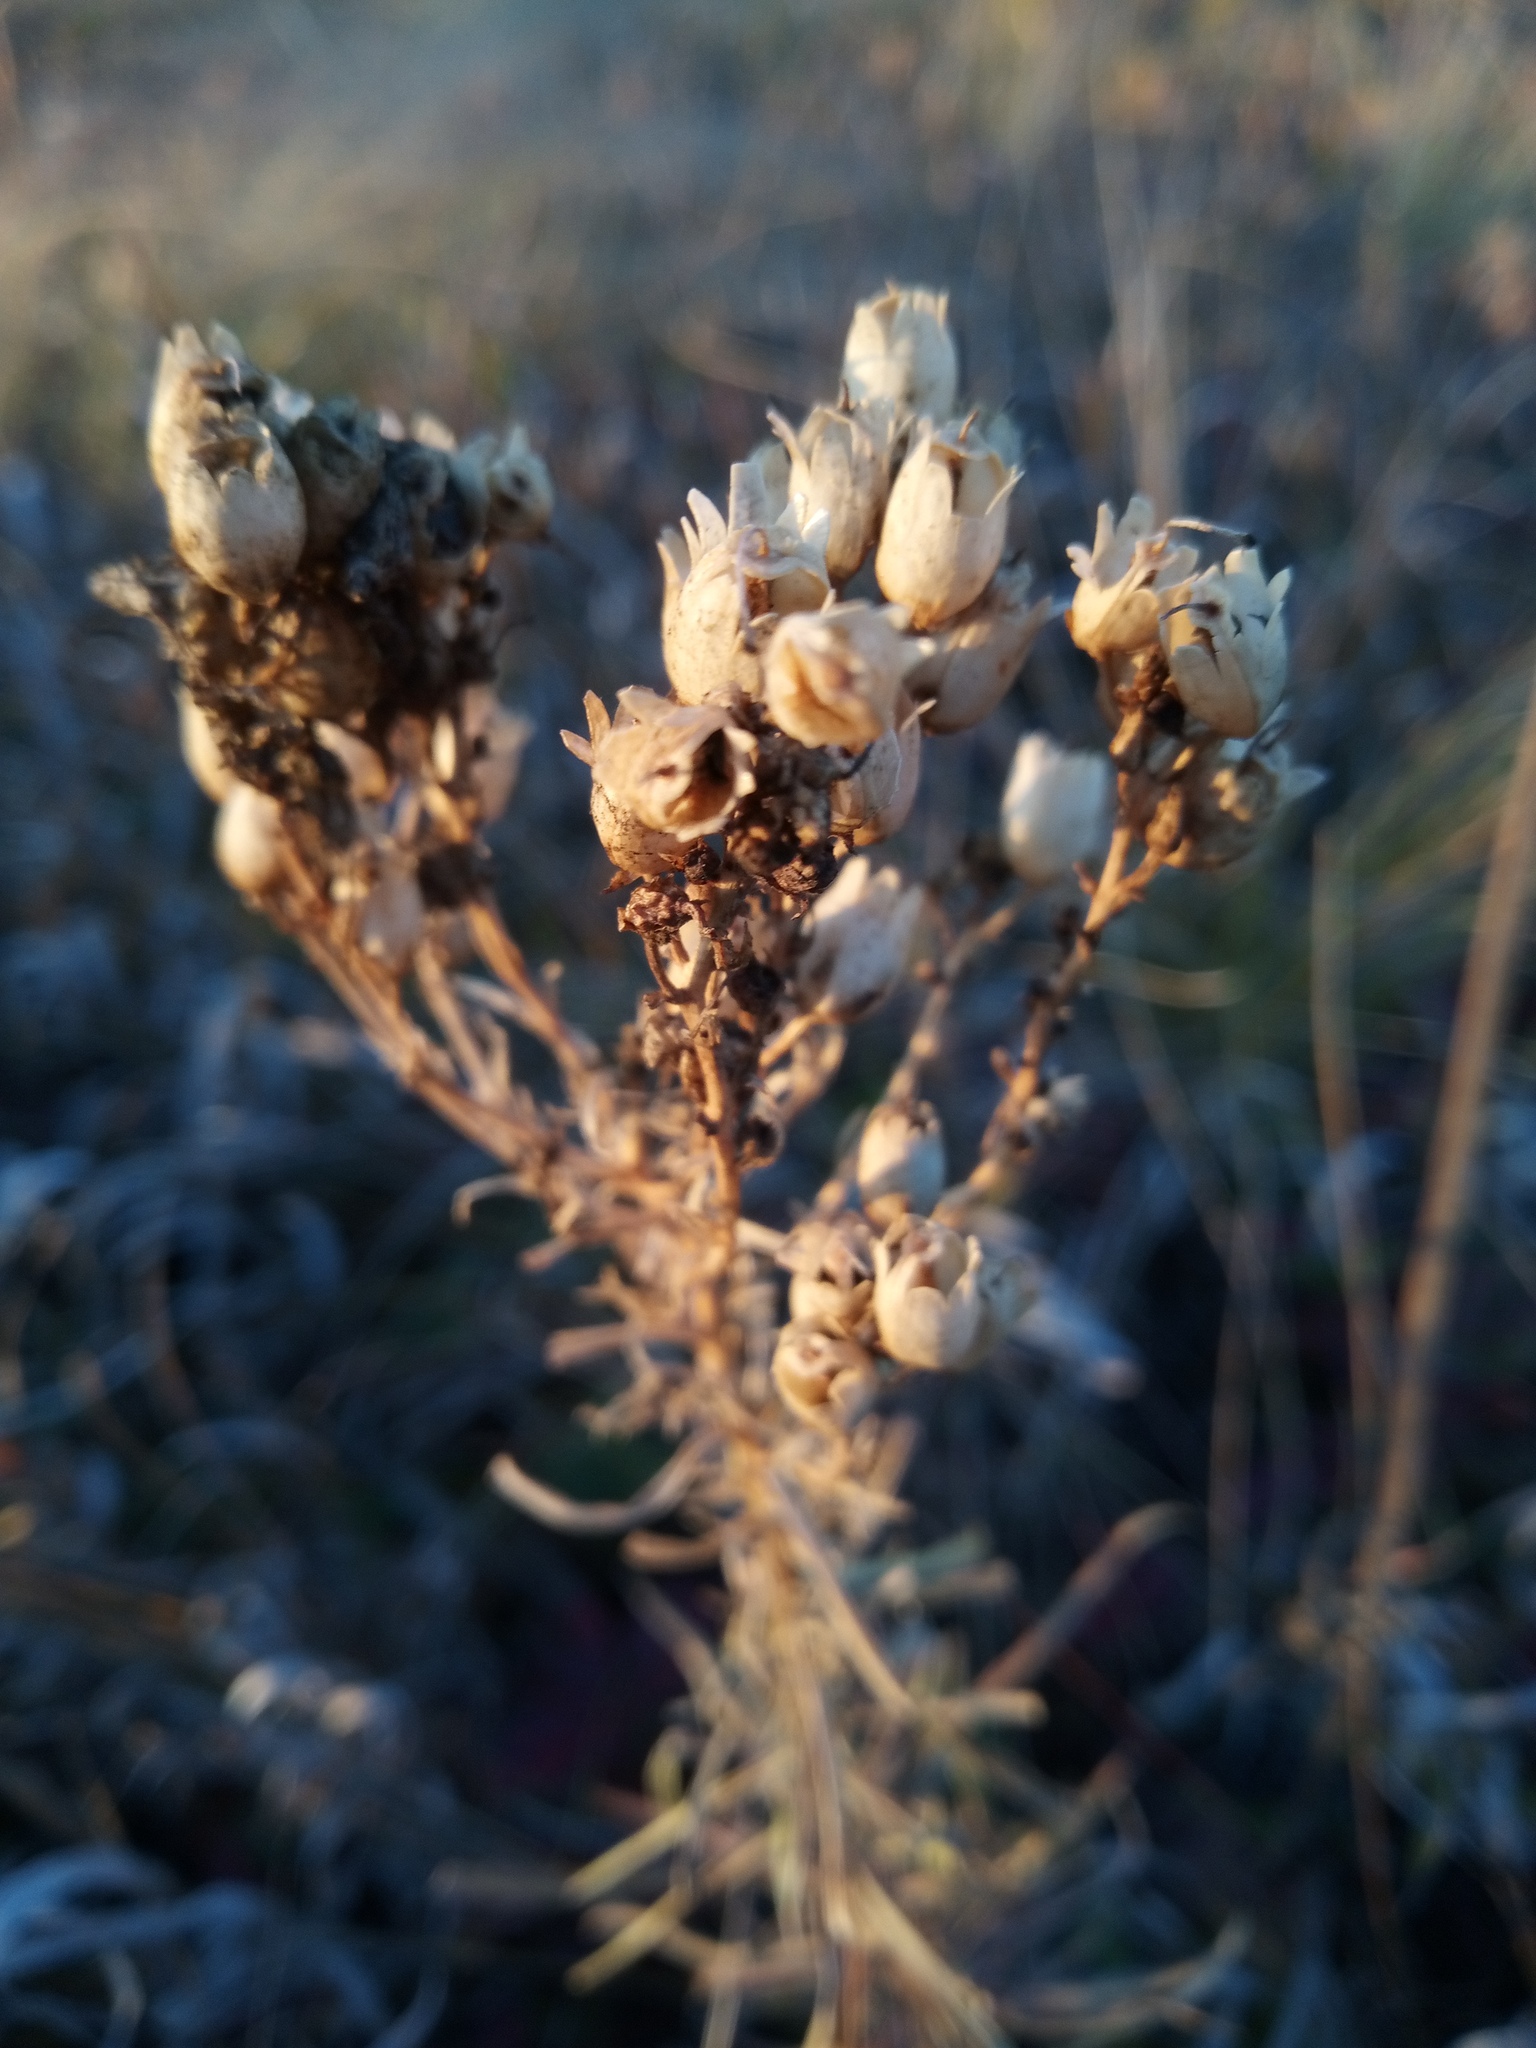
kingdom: Plantae
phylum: Tracheophyta
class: Magnoliopsida
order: Lamiales
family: Plantaginaceae
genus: Linaria
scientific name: Linaria biebersteinii
